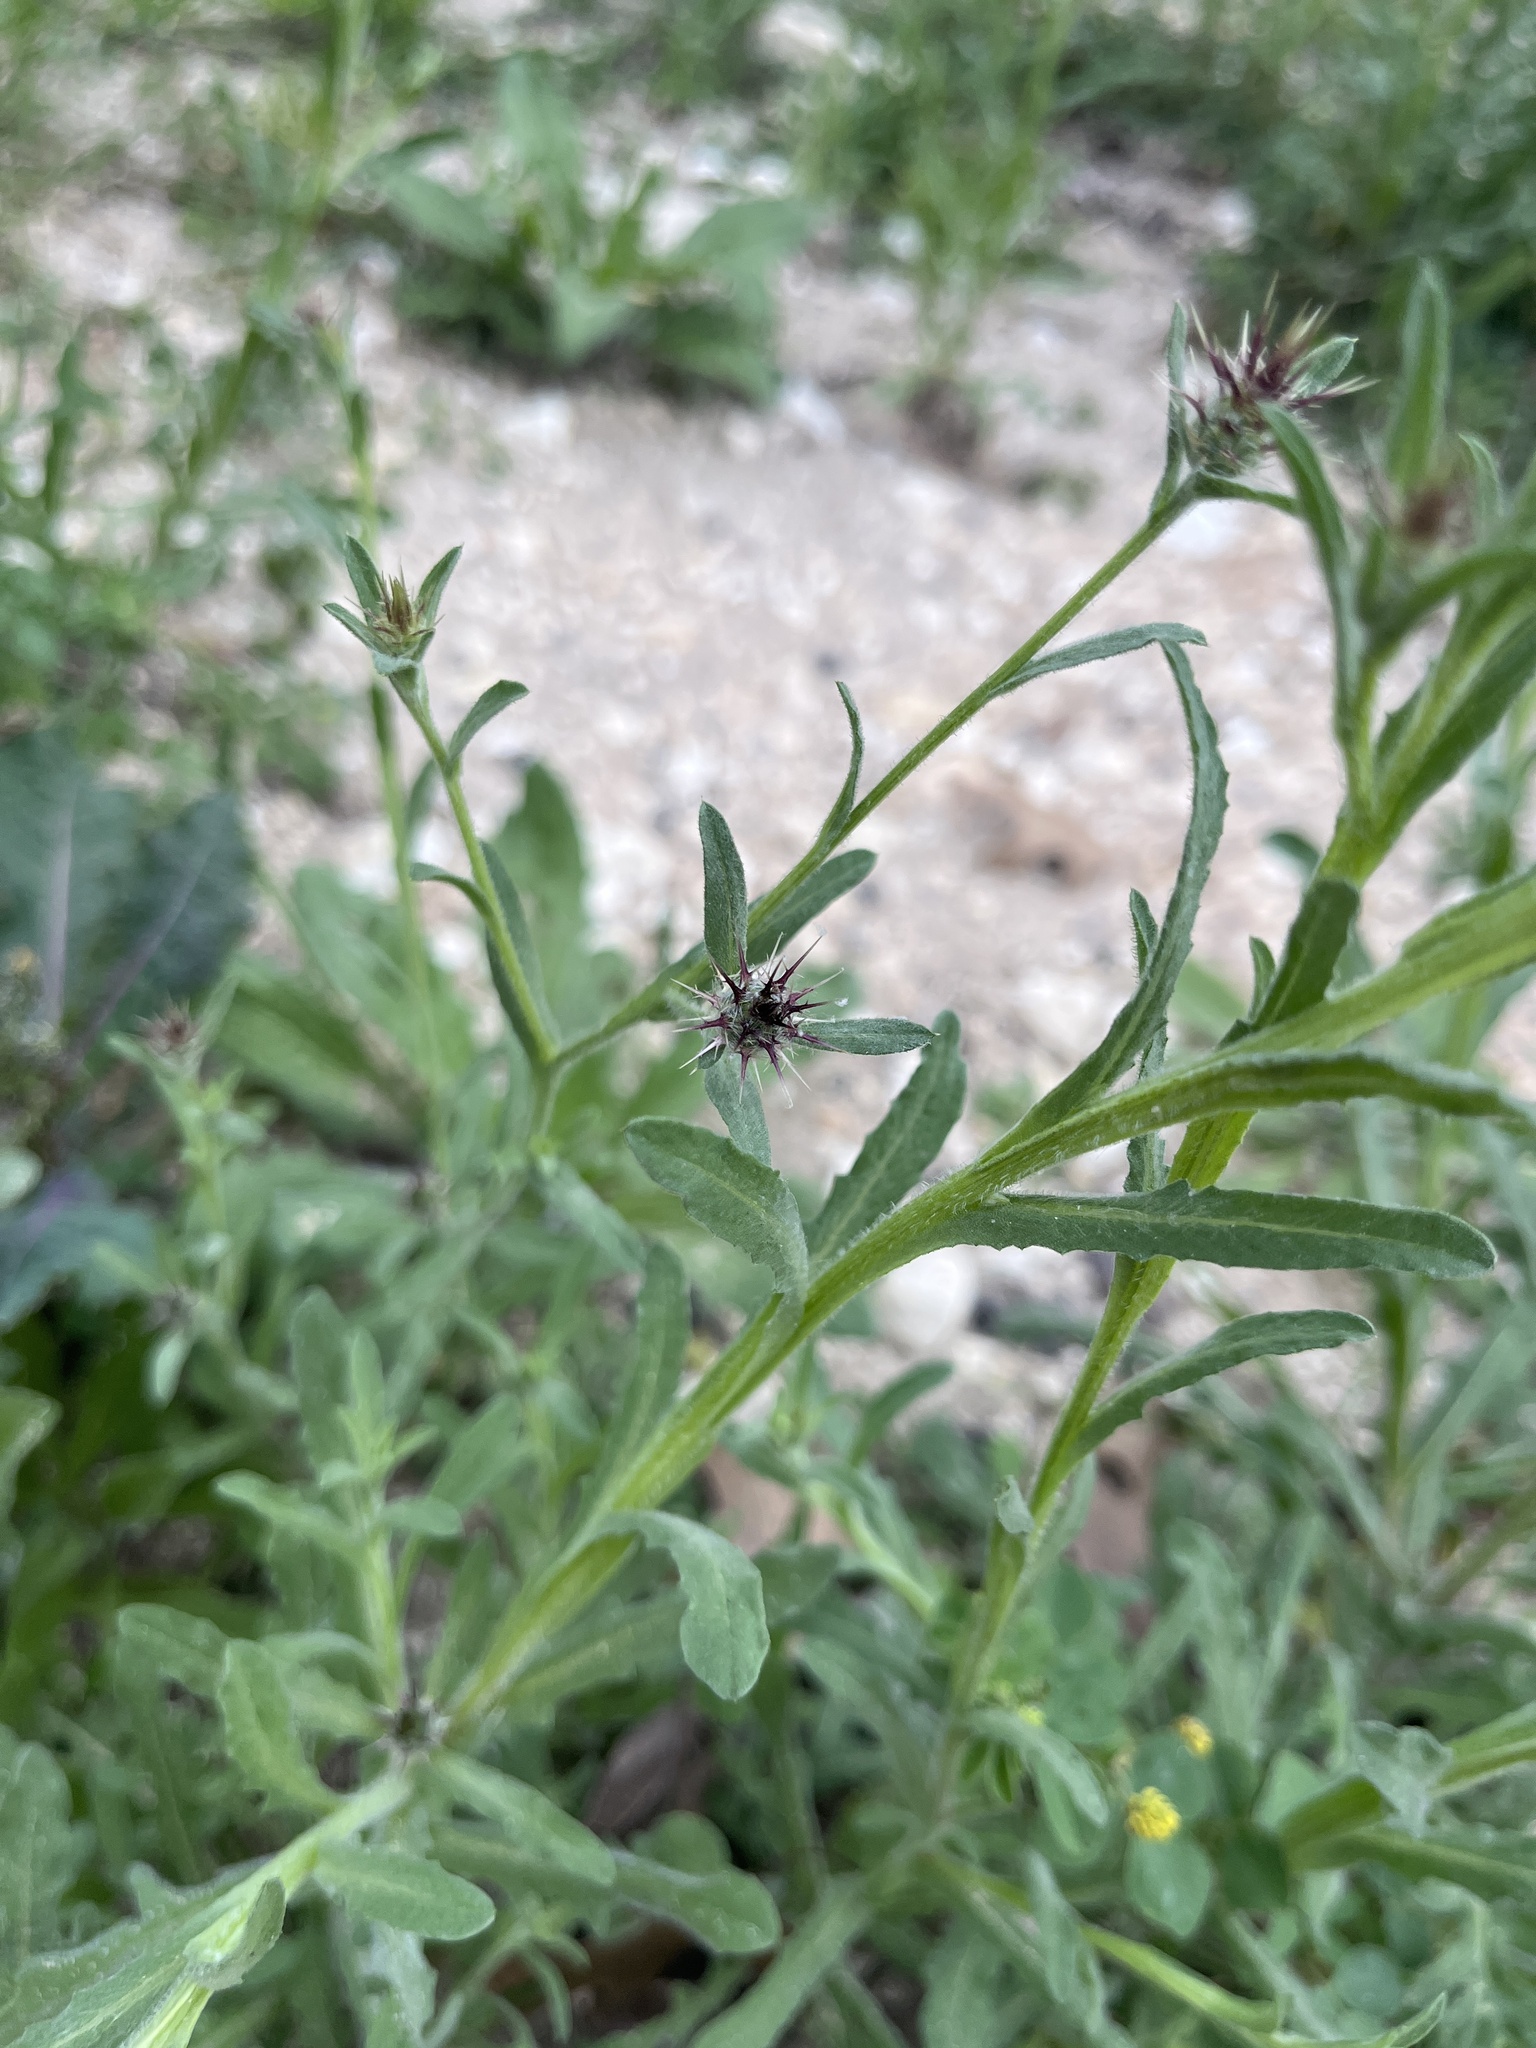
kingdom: Plantae
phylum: Tracheophyta
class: Magnoliopsida
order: Asterales
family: Asteraceae
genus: Centaurea
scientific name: Centaurea melitensis
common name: Maltese star-thistle
